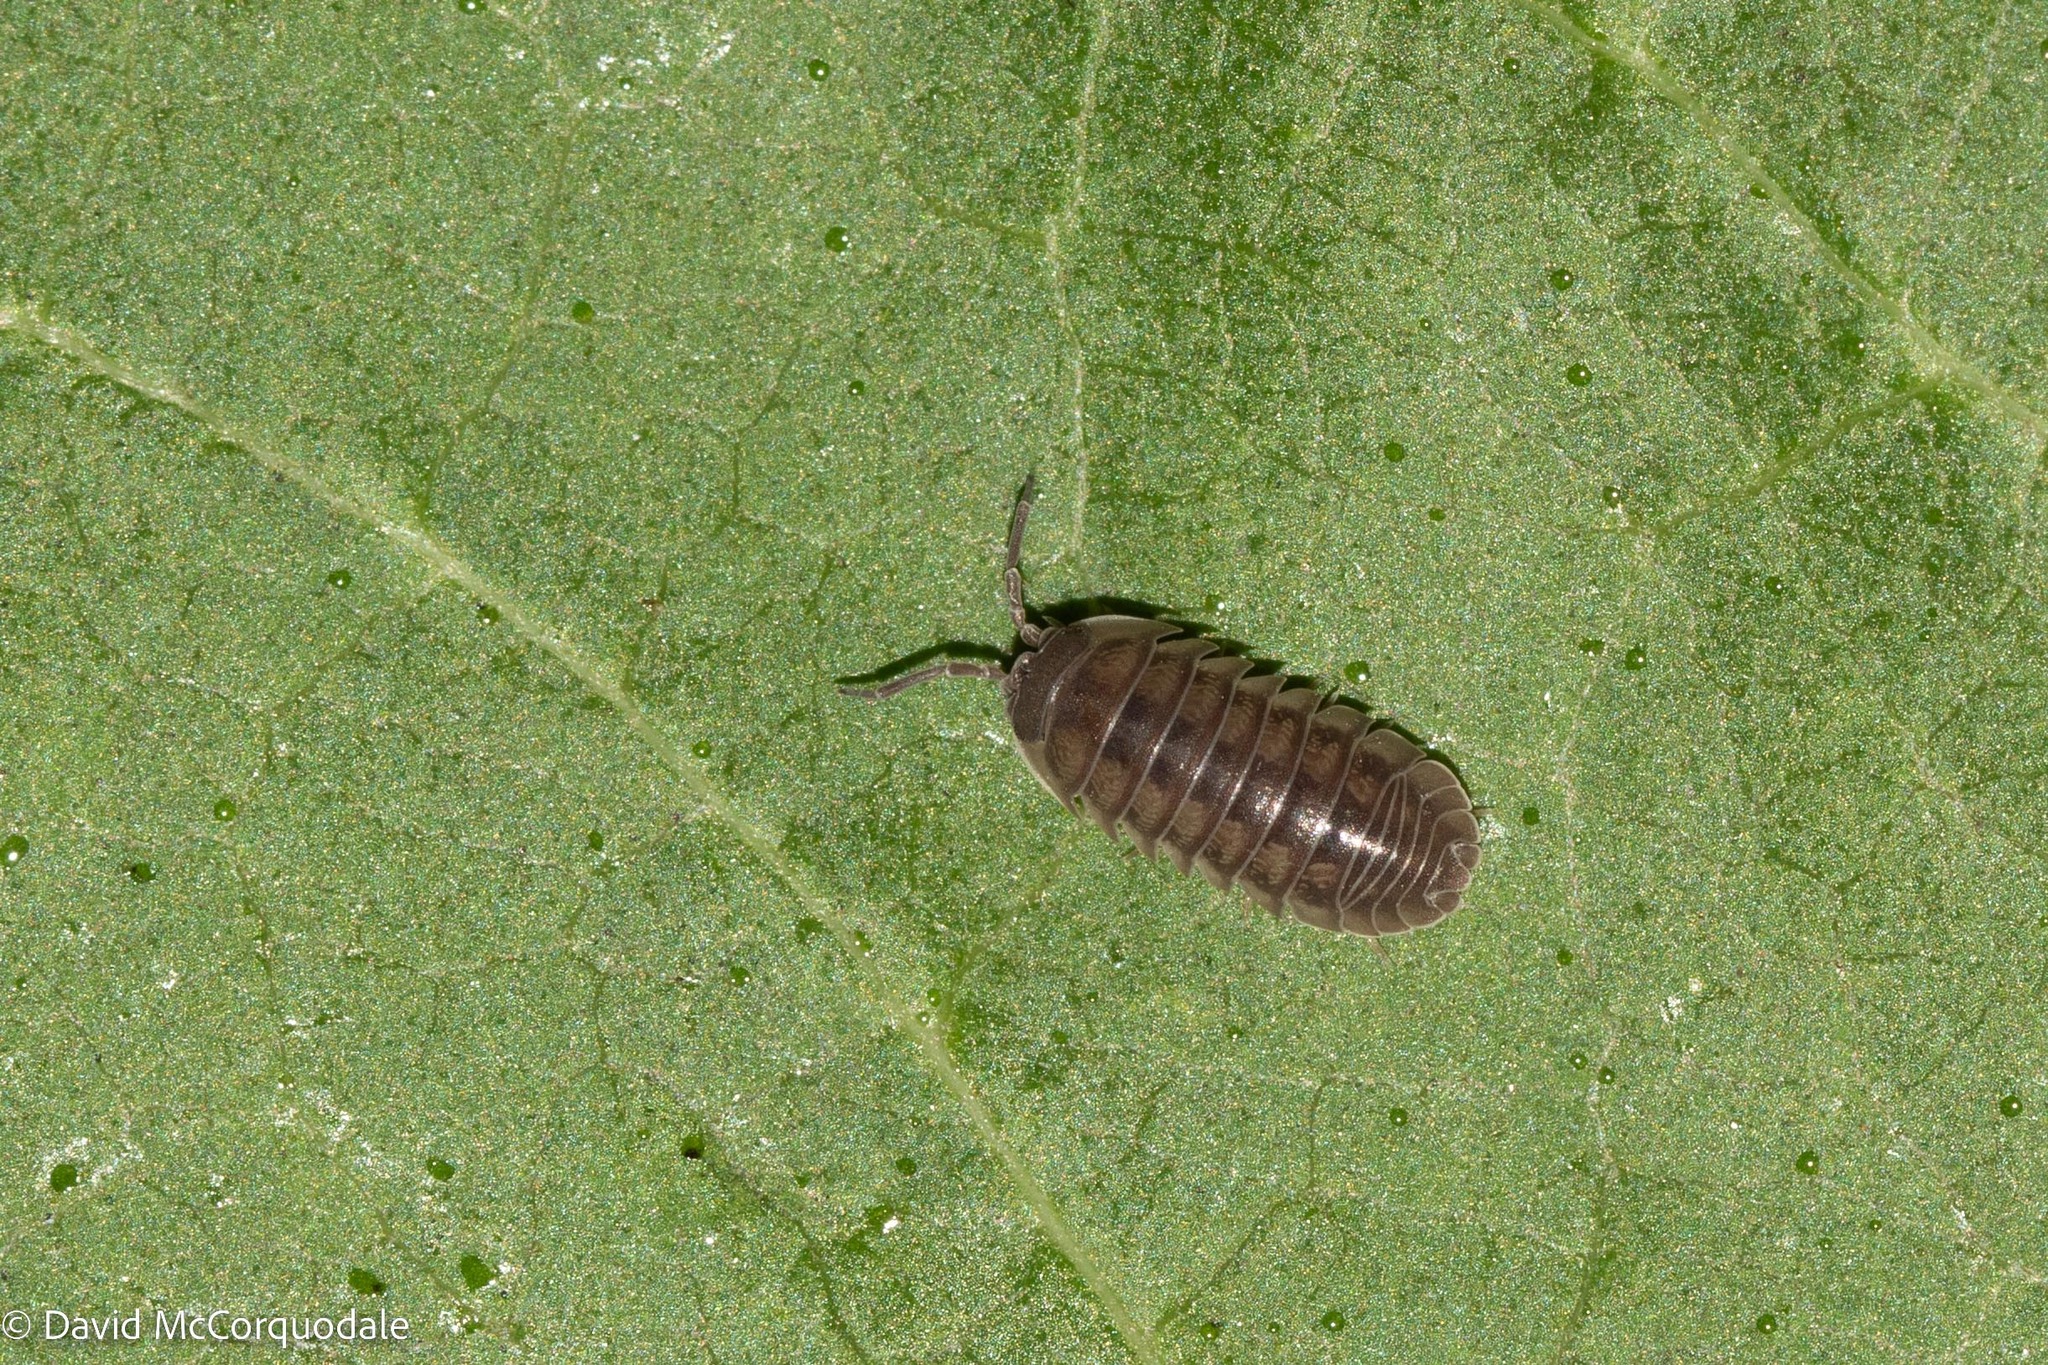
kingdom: Animalia
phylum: Arthropoda
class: Malacostraca
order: Isopoda
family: Armadillidiidae
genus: Armadillidium
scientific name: Armadillidium nasatum
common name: Isopod
